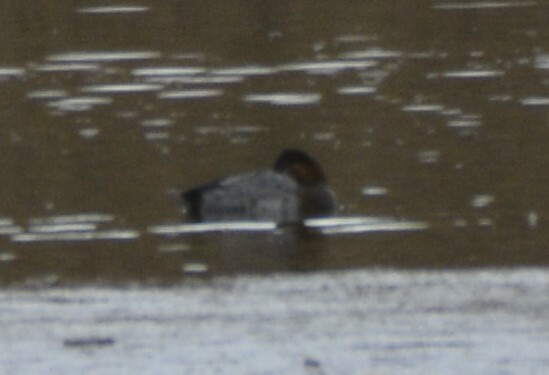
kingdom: Animalia
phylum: Chordata
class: Aves
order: Anseriformes
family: Anatidae
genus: Aythya
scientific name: Aythya ferina
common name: Common pochard
